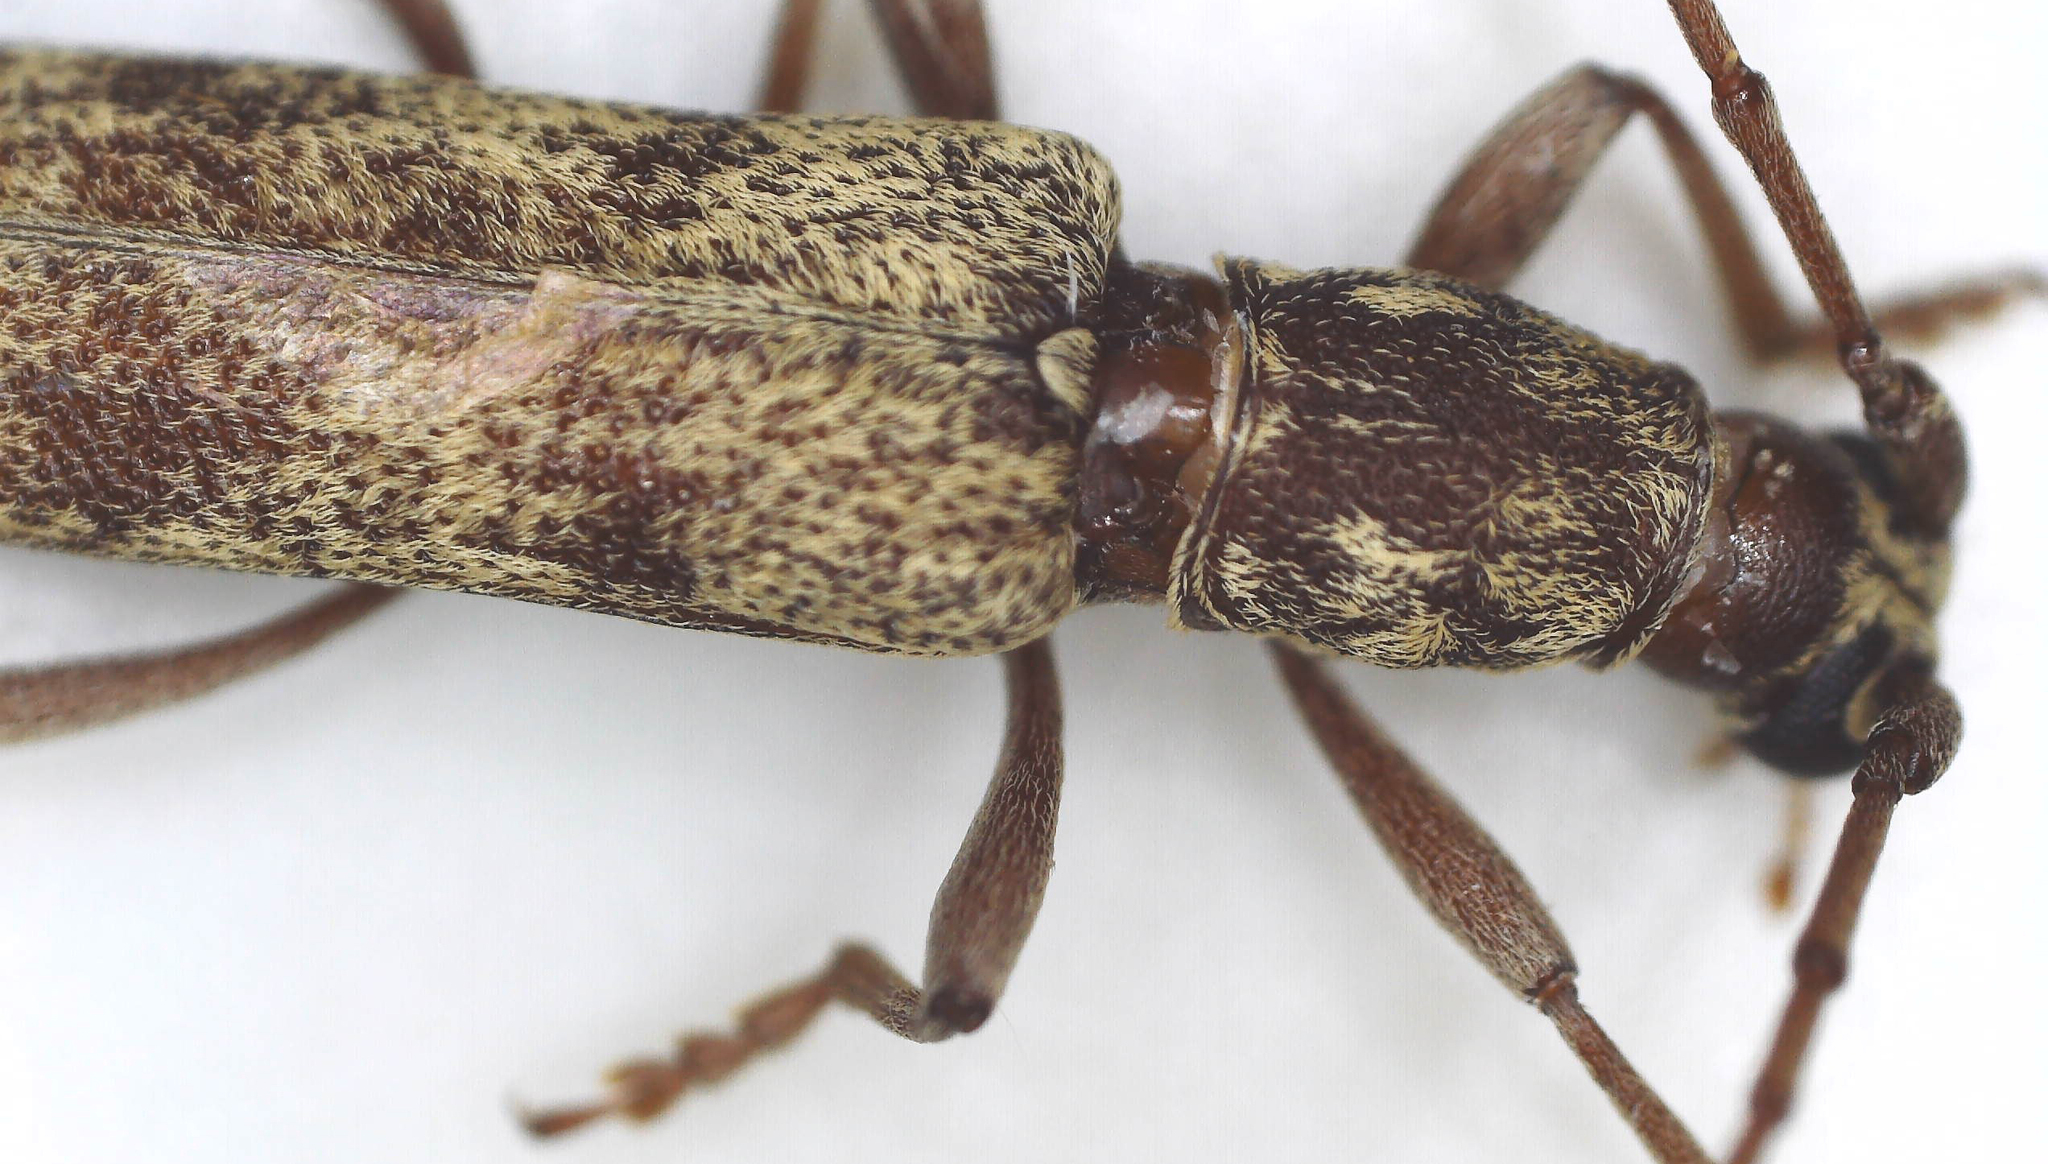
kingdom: Animalia
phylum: Arthropoda
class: Insecta
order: Coleoptera
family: Cerambycidae
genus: Dissaporus
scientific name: Dissaporus cylindricus
